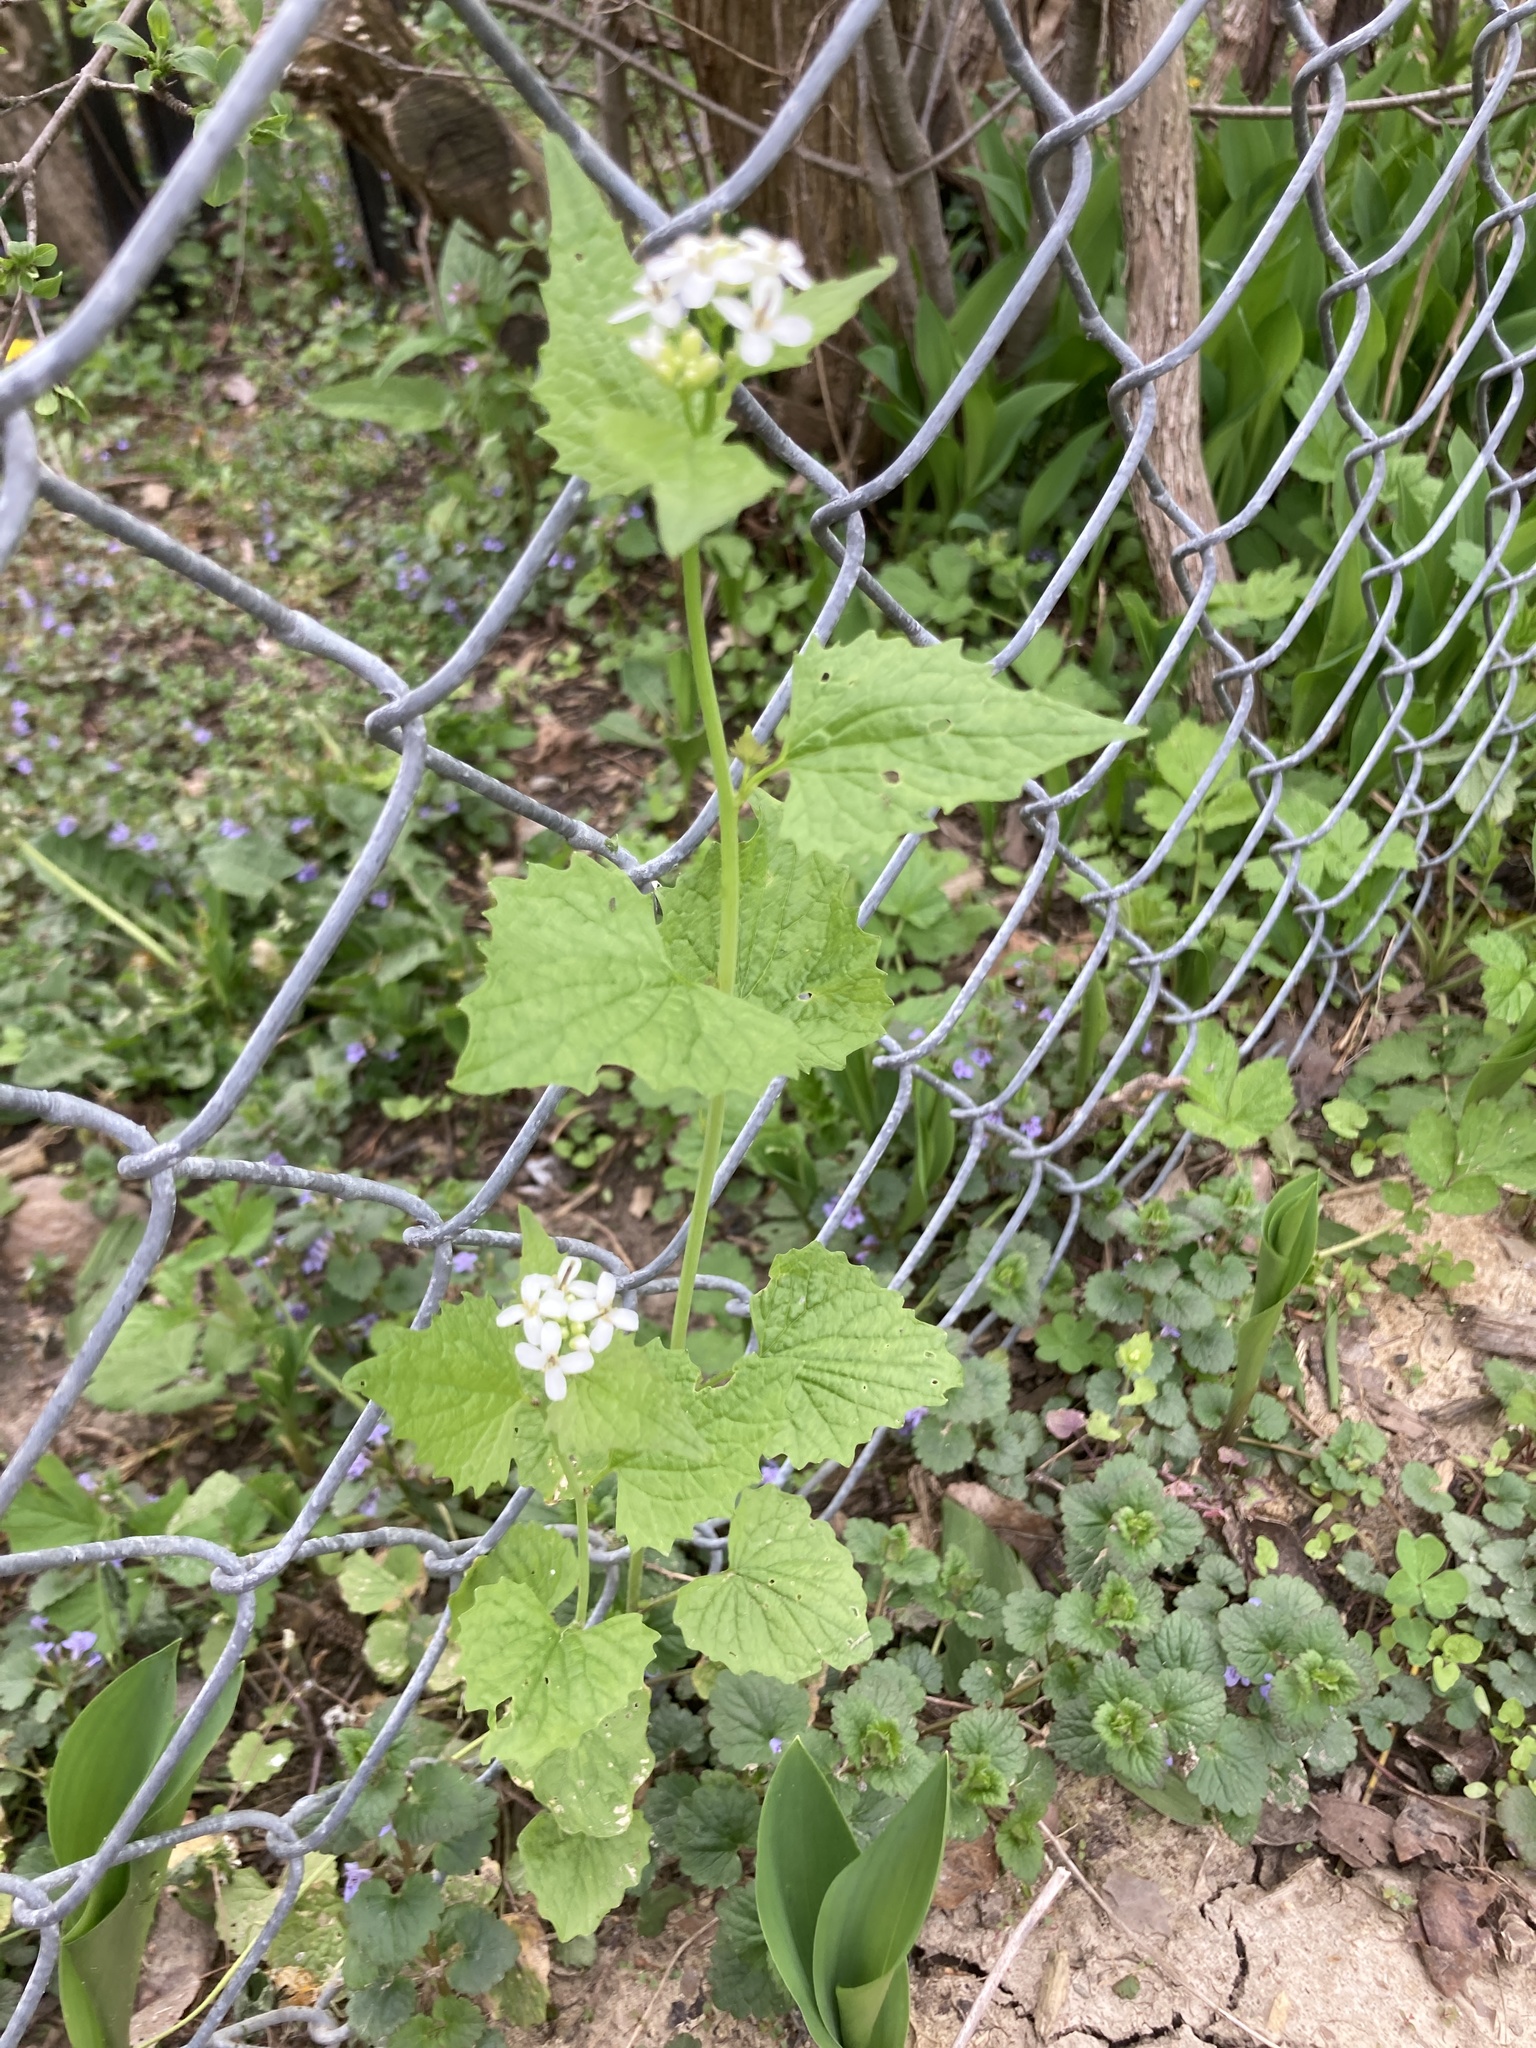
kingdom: Plantae
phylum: Tracheophyta
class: Magnoliopsida
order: Brassicales
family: Brassicaceae
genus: Alliaria
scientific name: Alliaria petiolata
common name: Garlic mustard
